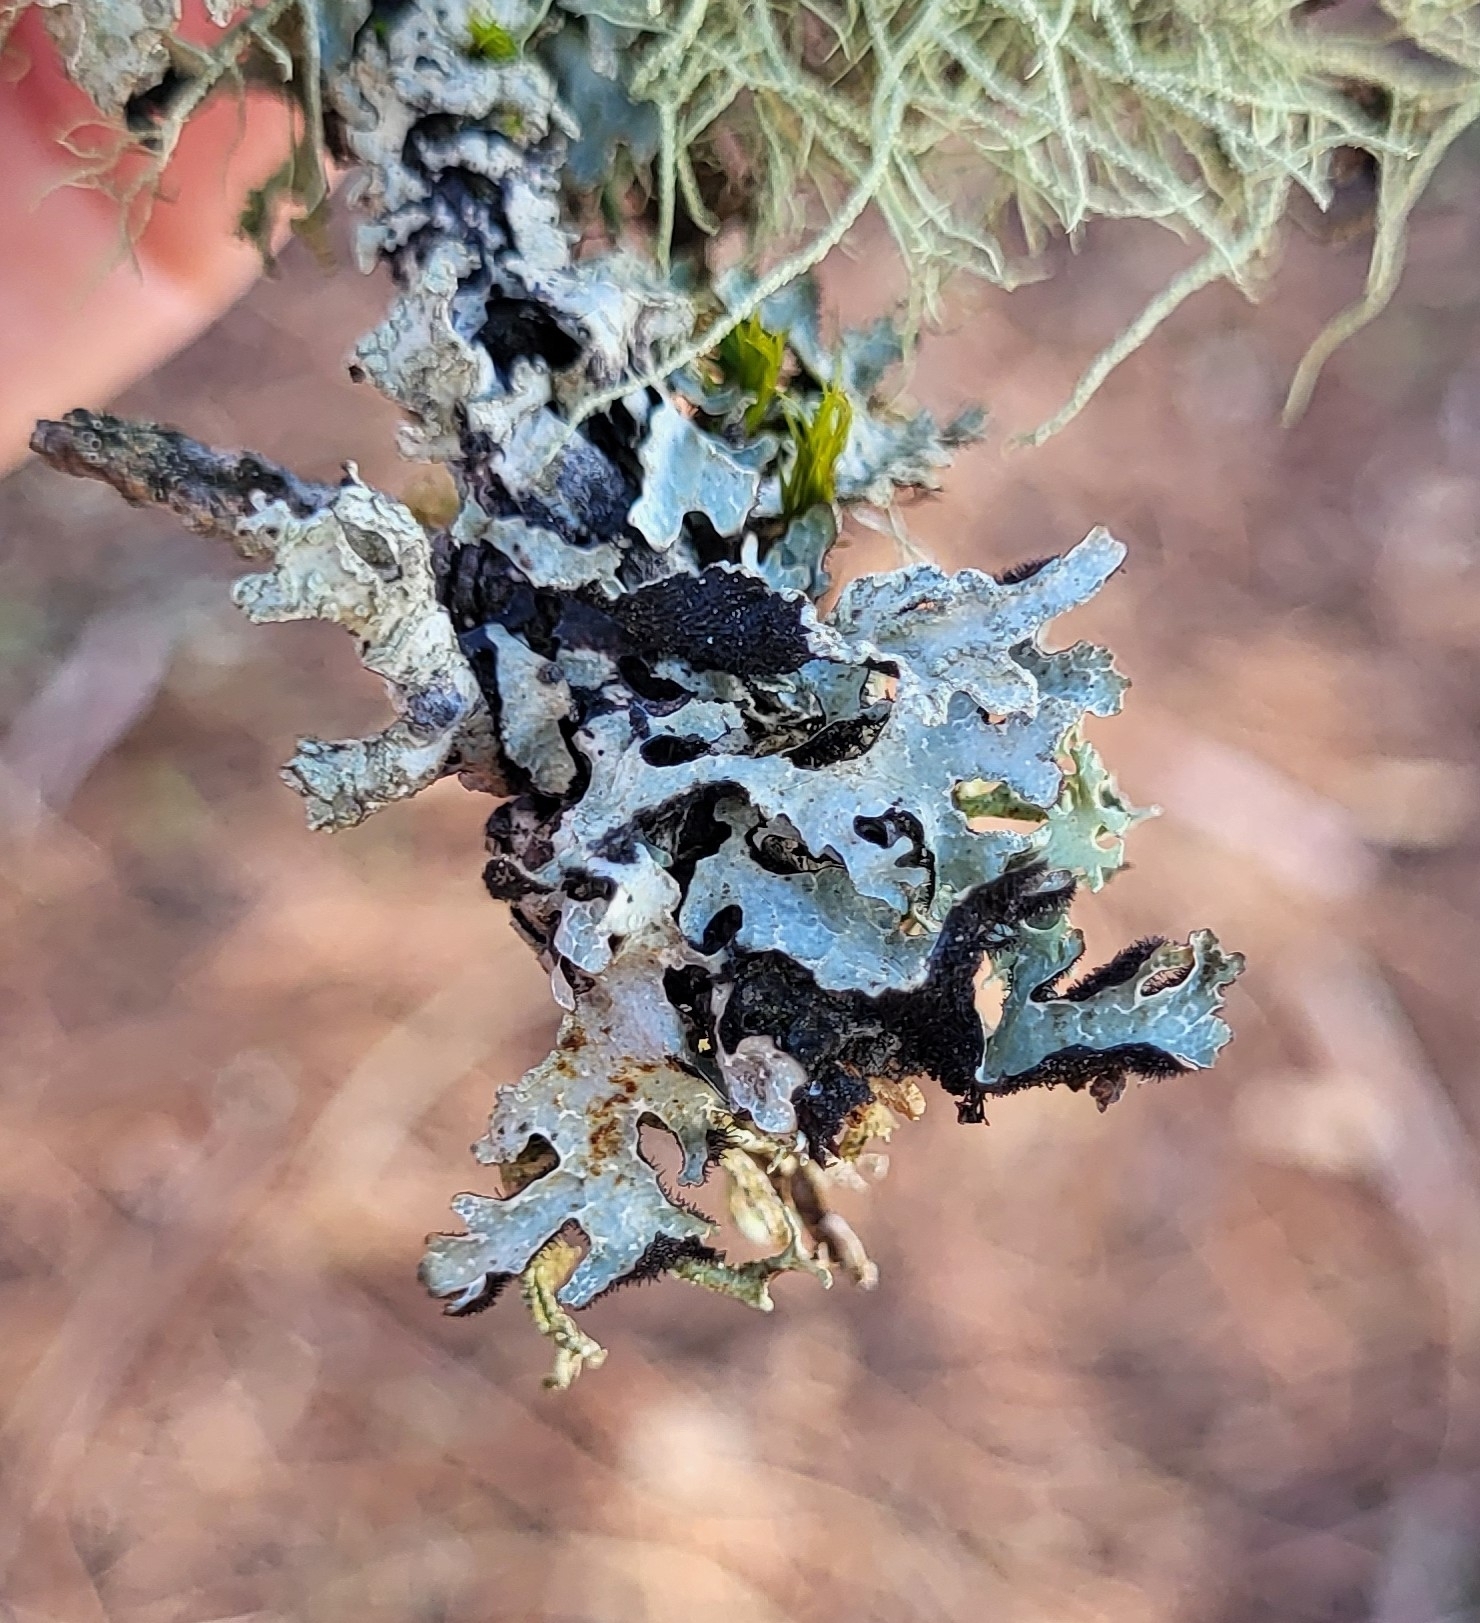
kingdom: Fungi
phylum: Ascomycota
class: Lecanoromycetes
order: Lecanorales
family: Parmeliaceae
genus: Parmelia
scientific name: Parmelia sulcata
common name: Netted shield lichen
